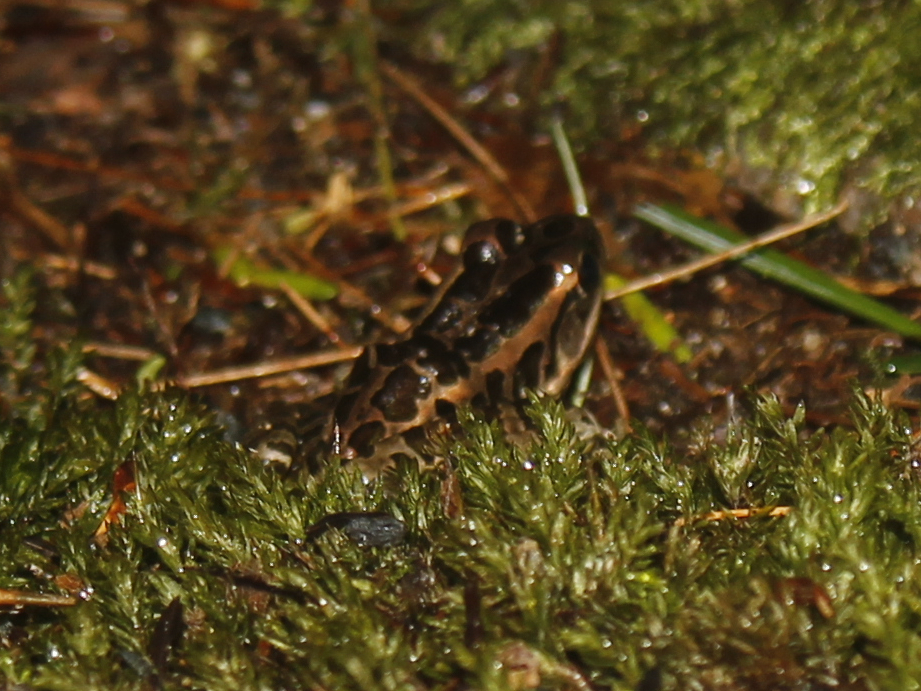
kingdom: Animalia
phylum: Chordata
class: Amphibia
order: Anura
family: Ranidae
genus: Lithobates
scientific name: Lithobates palustris
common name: Pickerel frog
